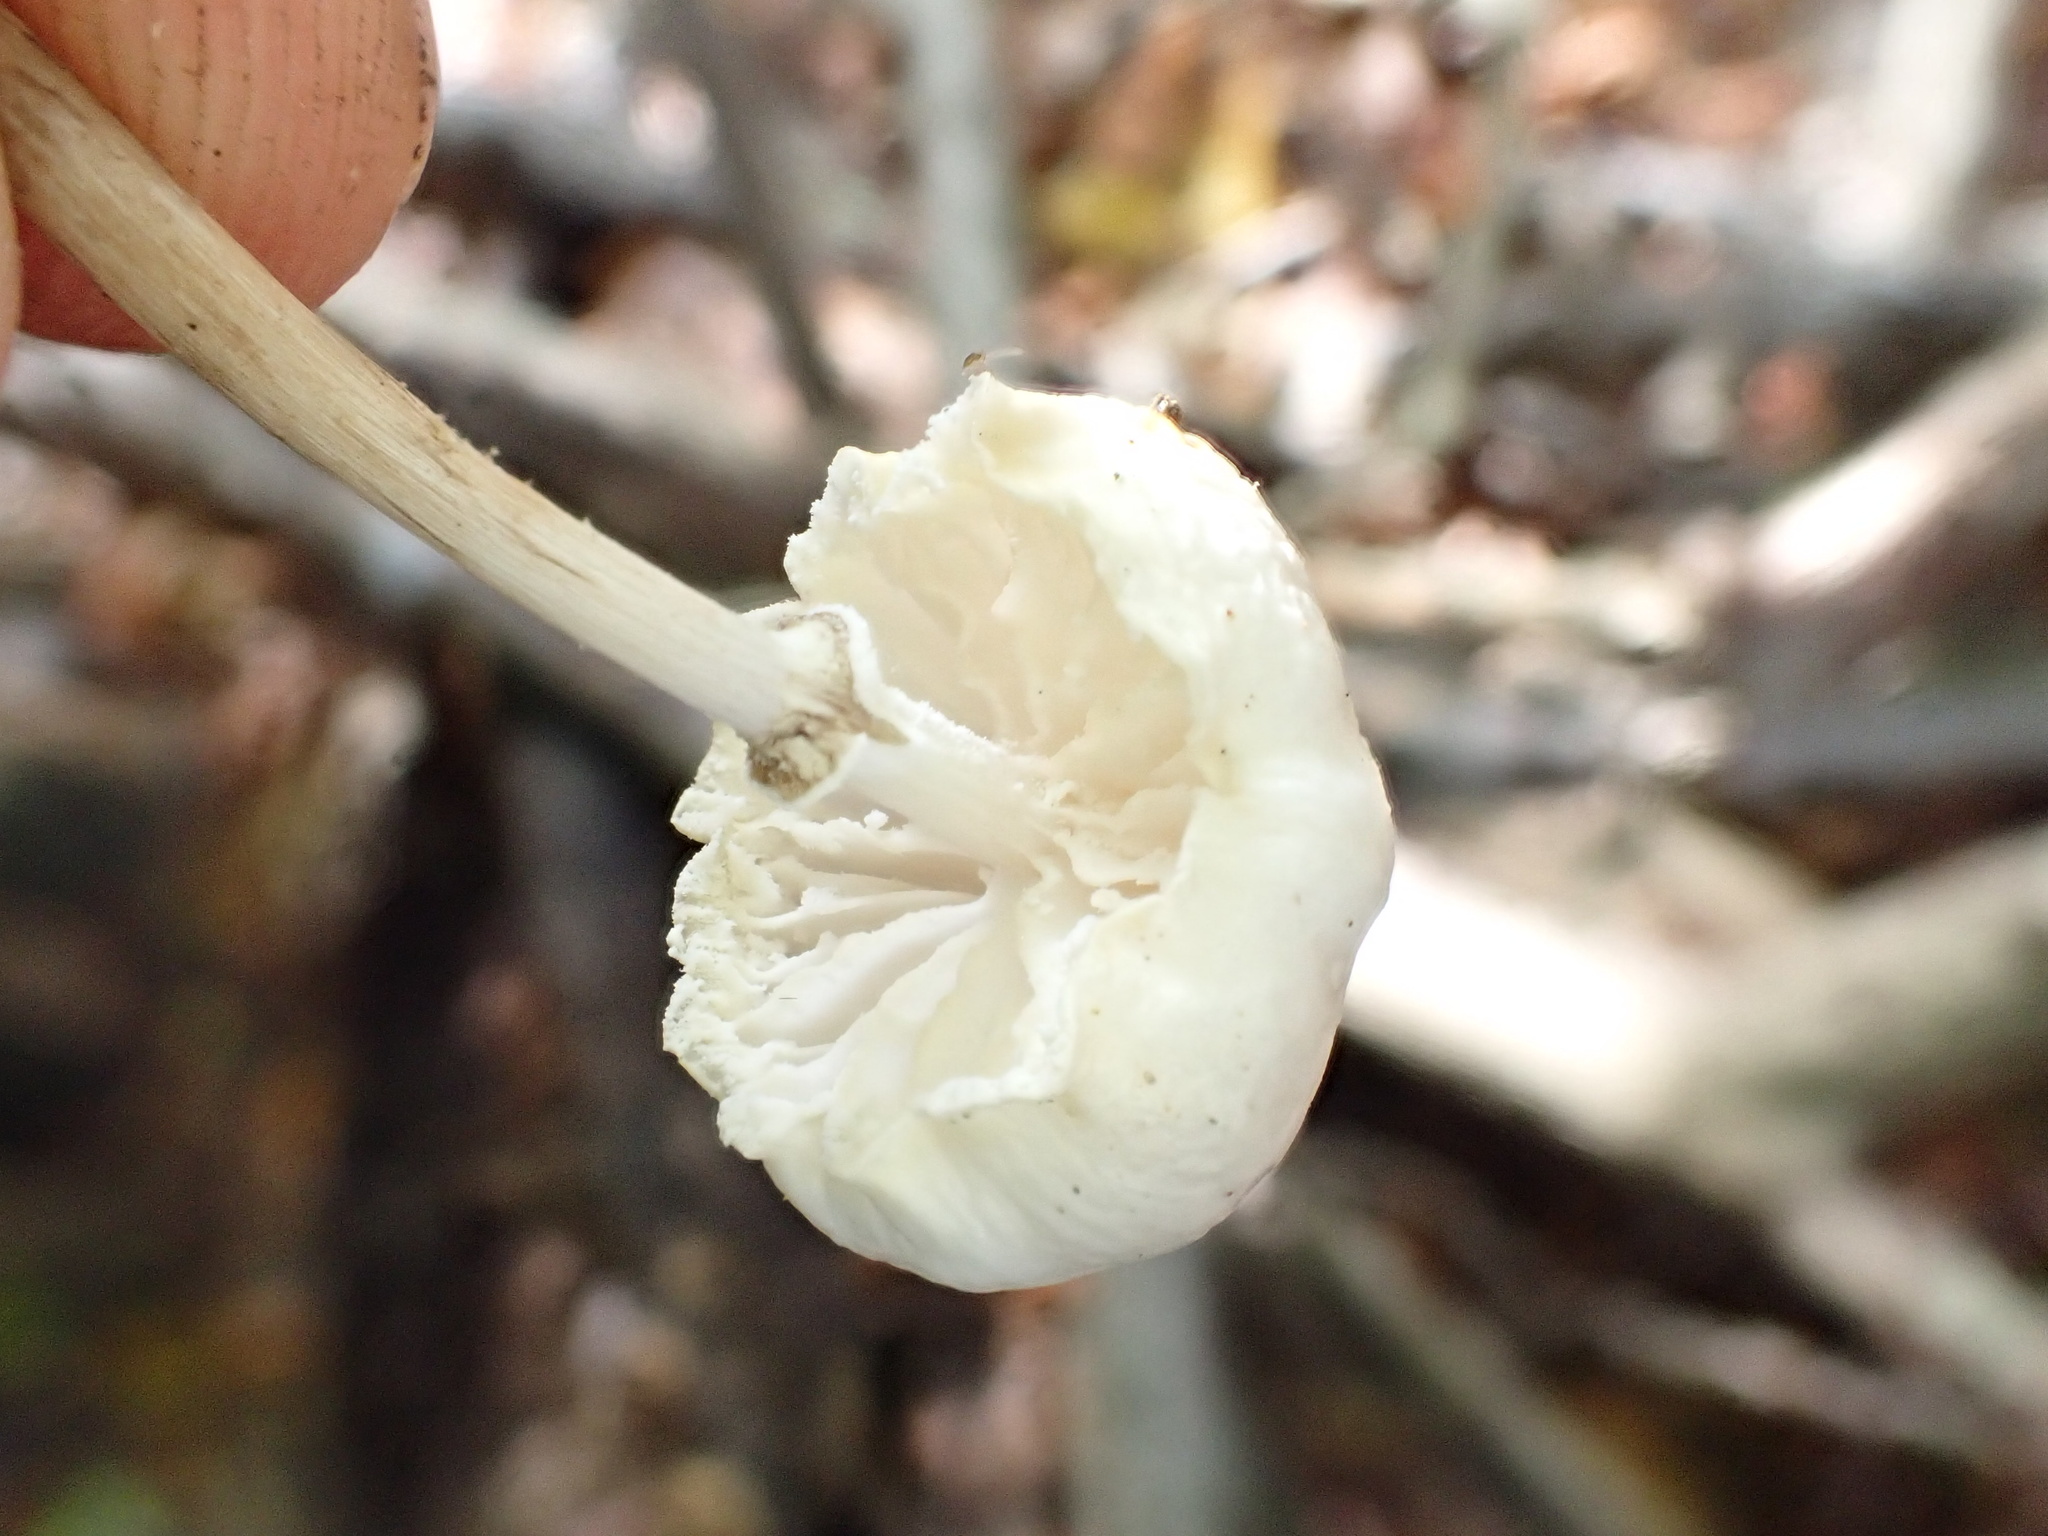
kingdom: Fungi
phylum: Basidiomycota
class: Agaricomycetes
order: Agaricales
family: Physalacriaceae
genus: Mucidula
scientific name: Mucidula mucida
